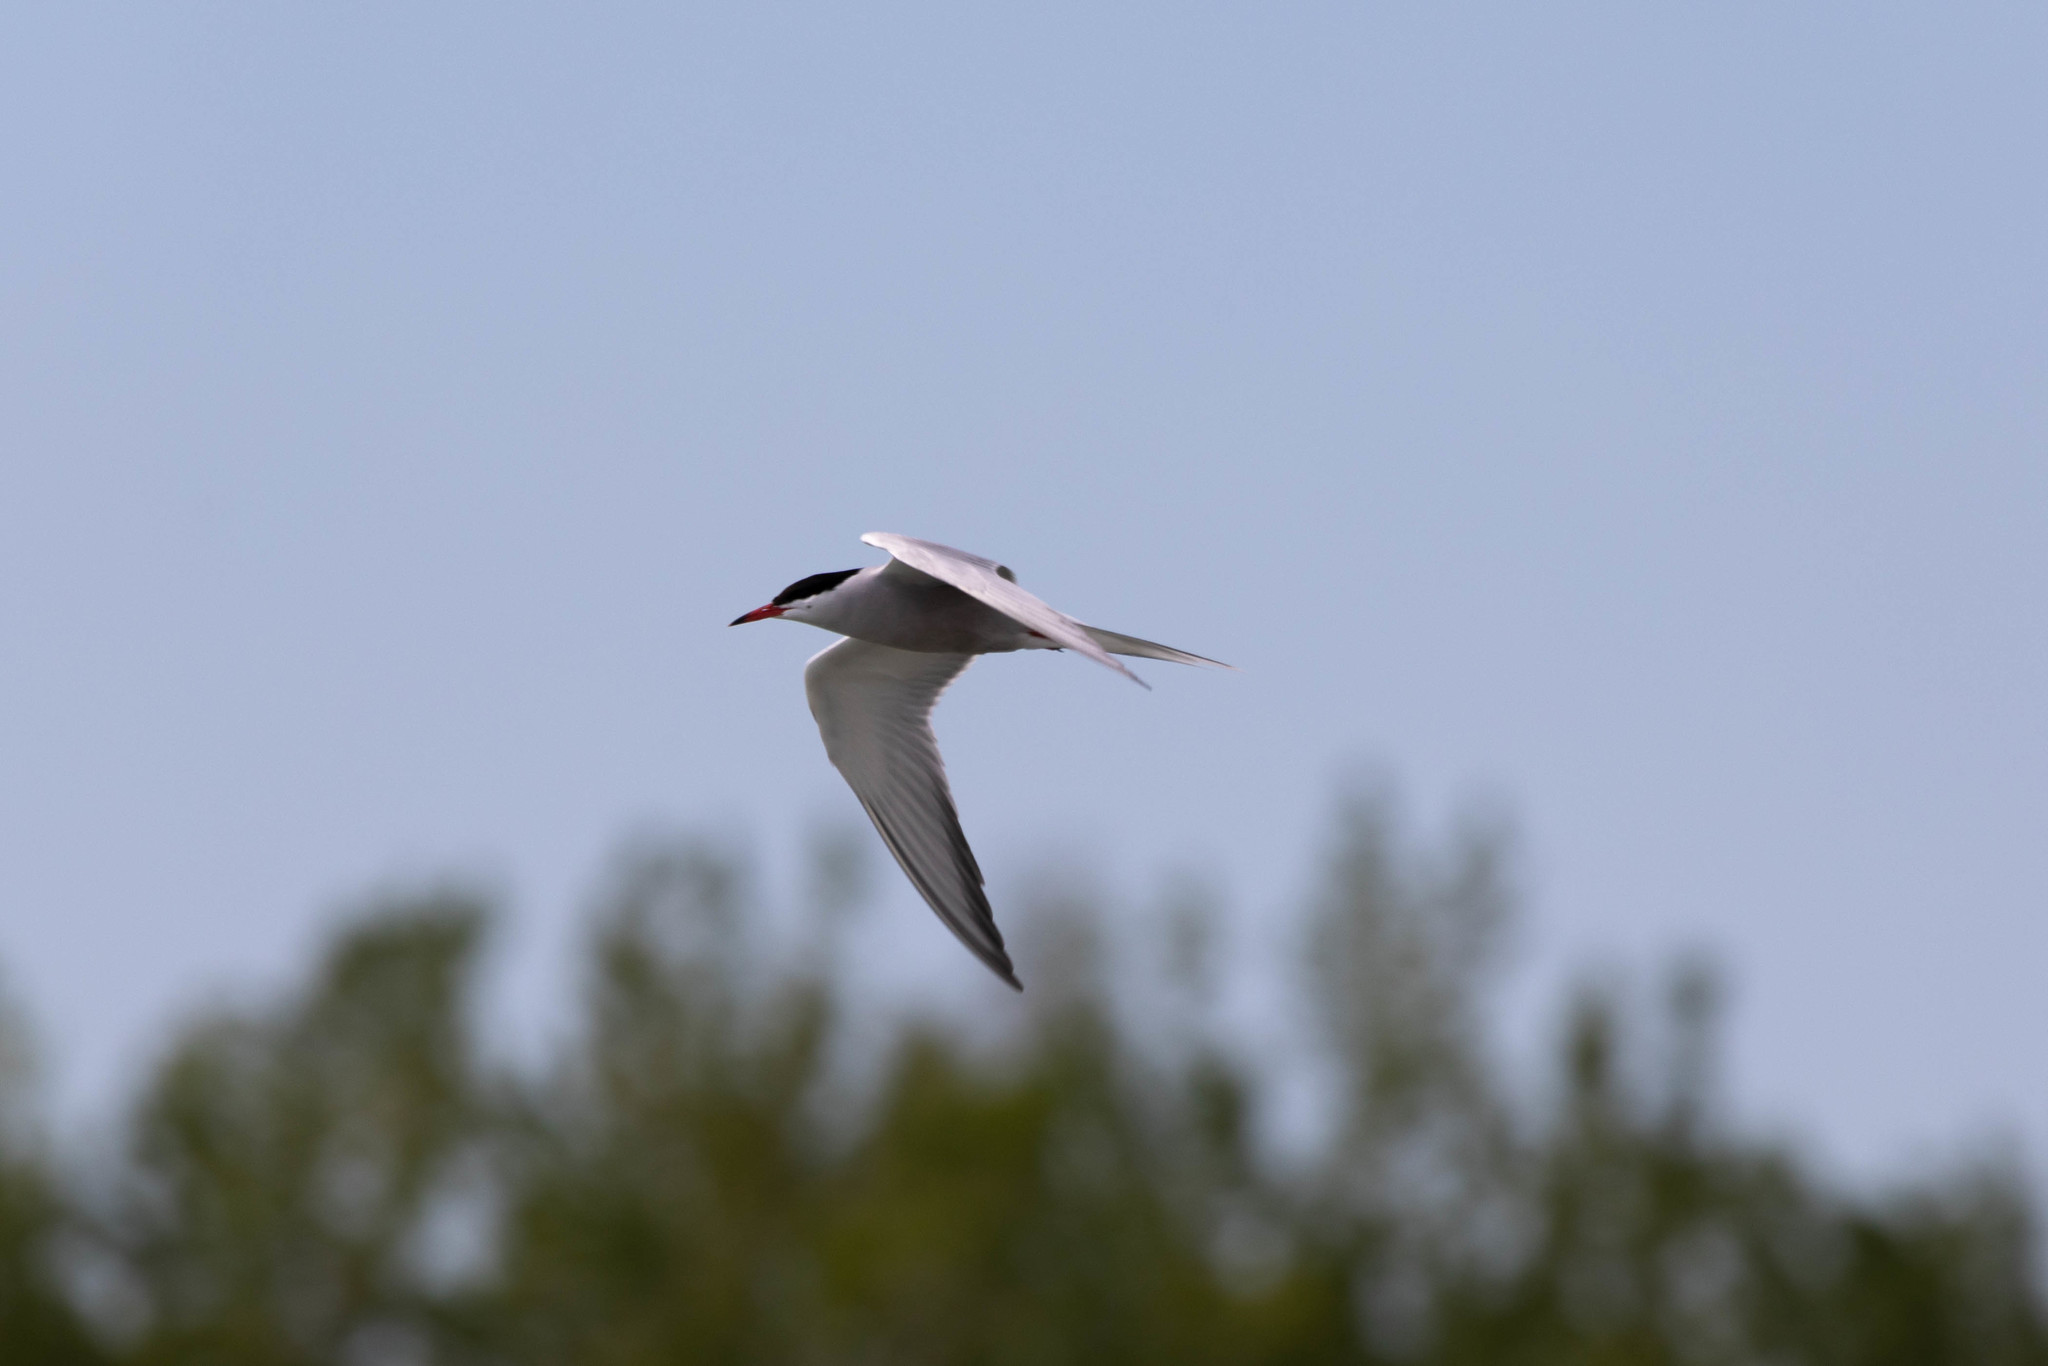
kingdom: Animalia
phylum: Chordata
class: Aves
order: Charadriiformes
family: Laridae
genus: Sterna
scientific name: Sterna hirundo
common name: Common tern
